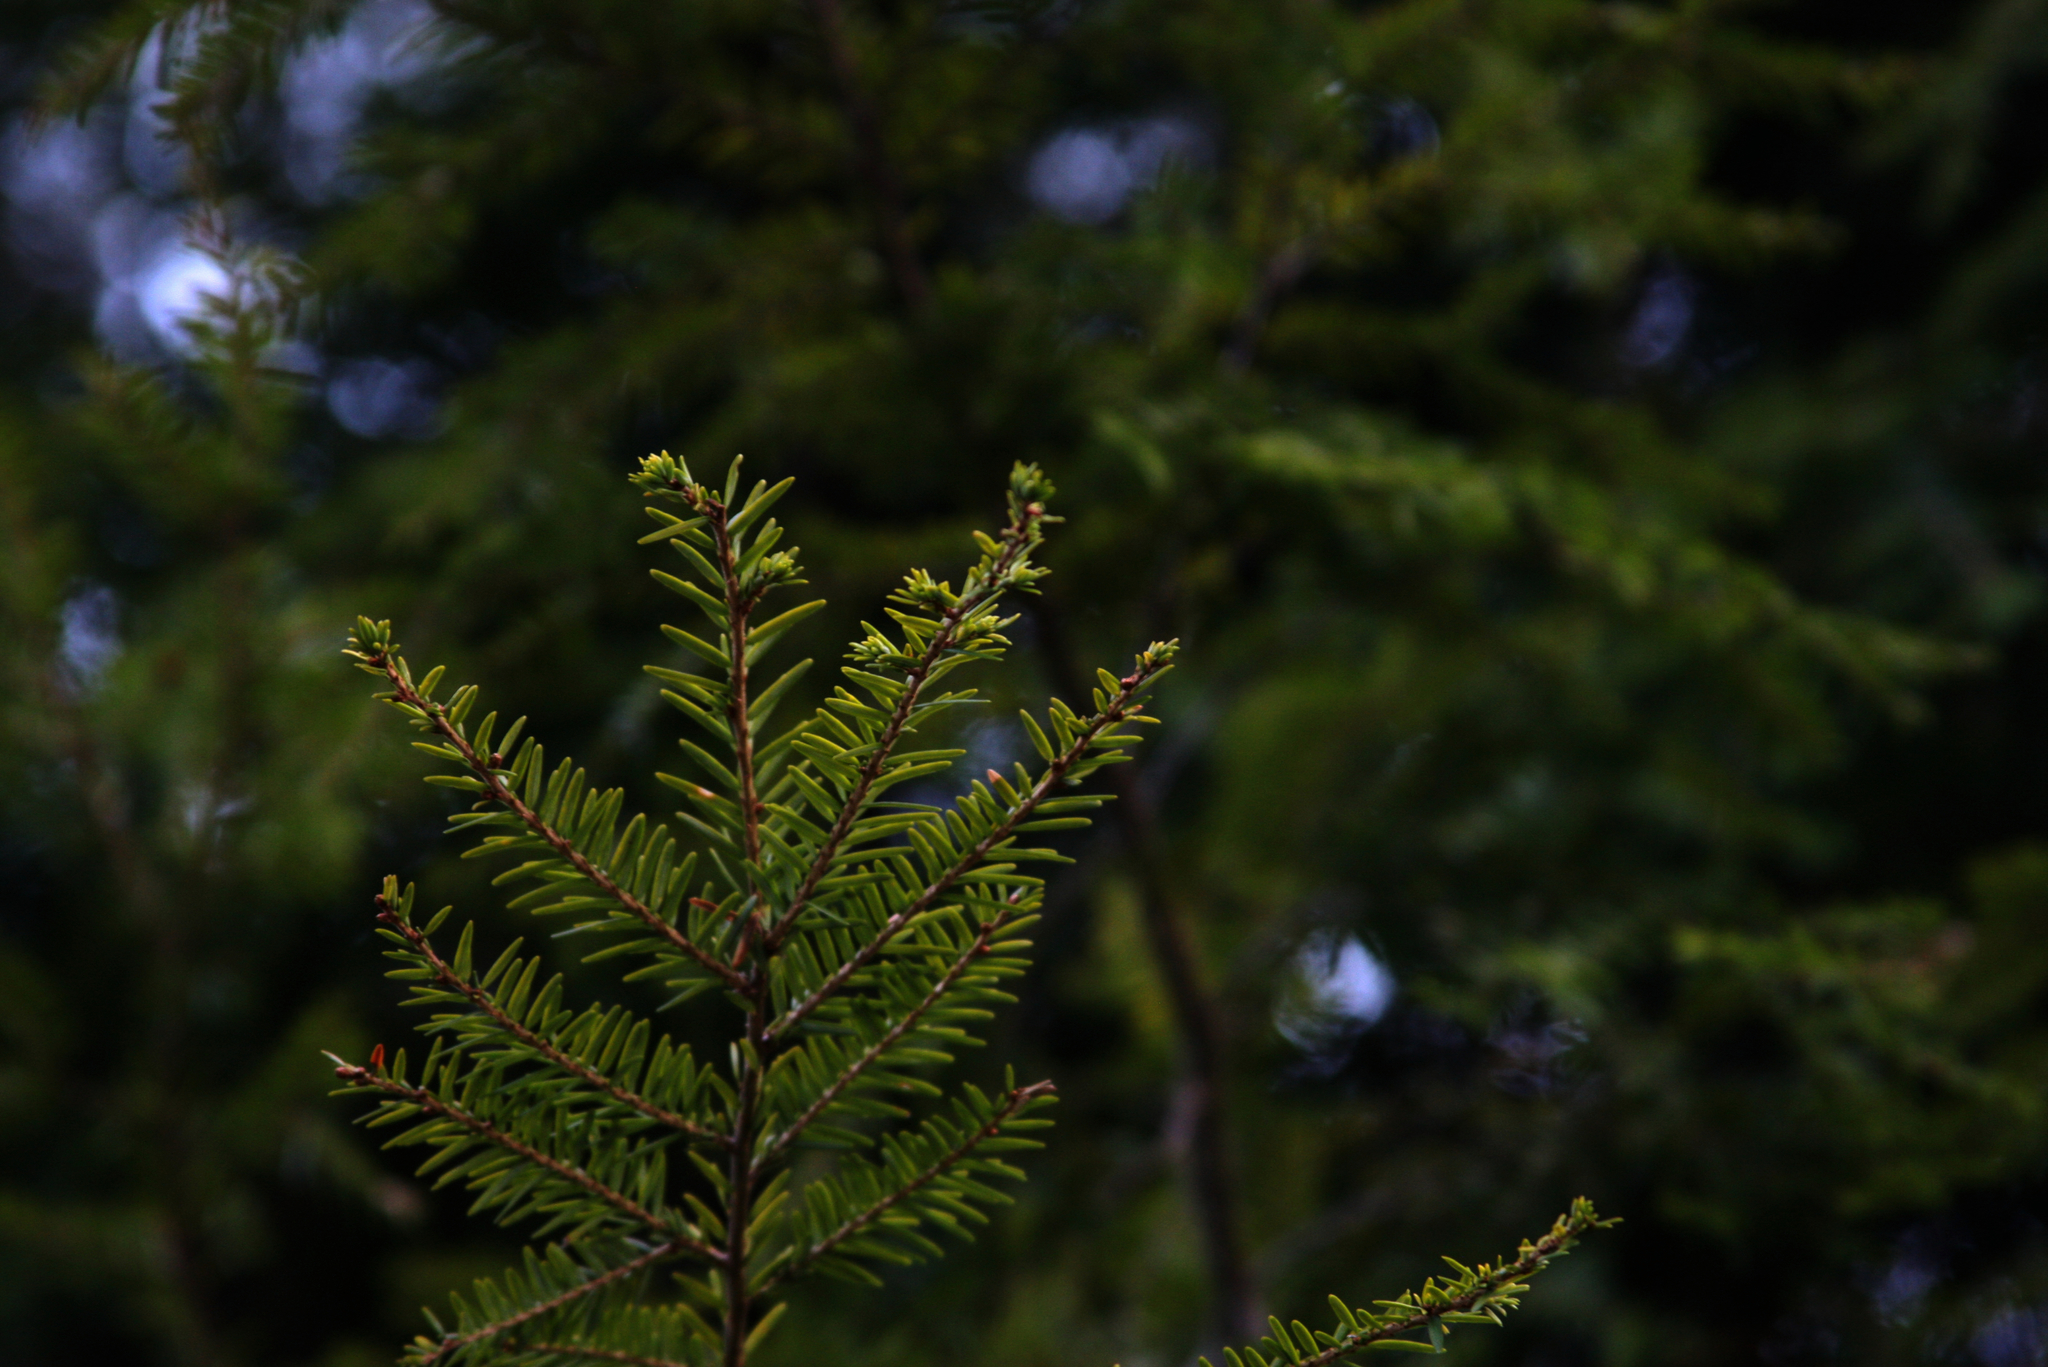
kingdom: Plantae
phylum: Tracheophyta
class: Pinopsida
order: Pinales
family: Pinaceae
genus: Tsuga
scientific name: Tsuga canadensis
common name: Eastern hemlock
